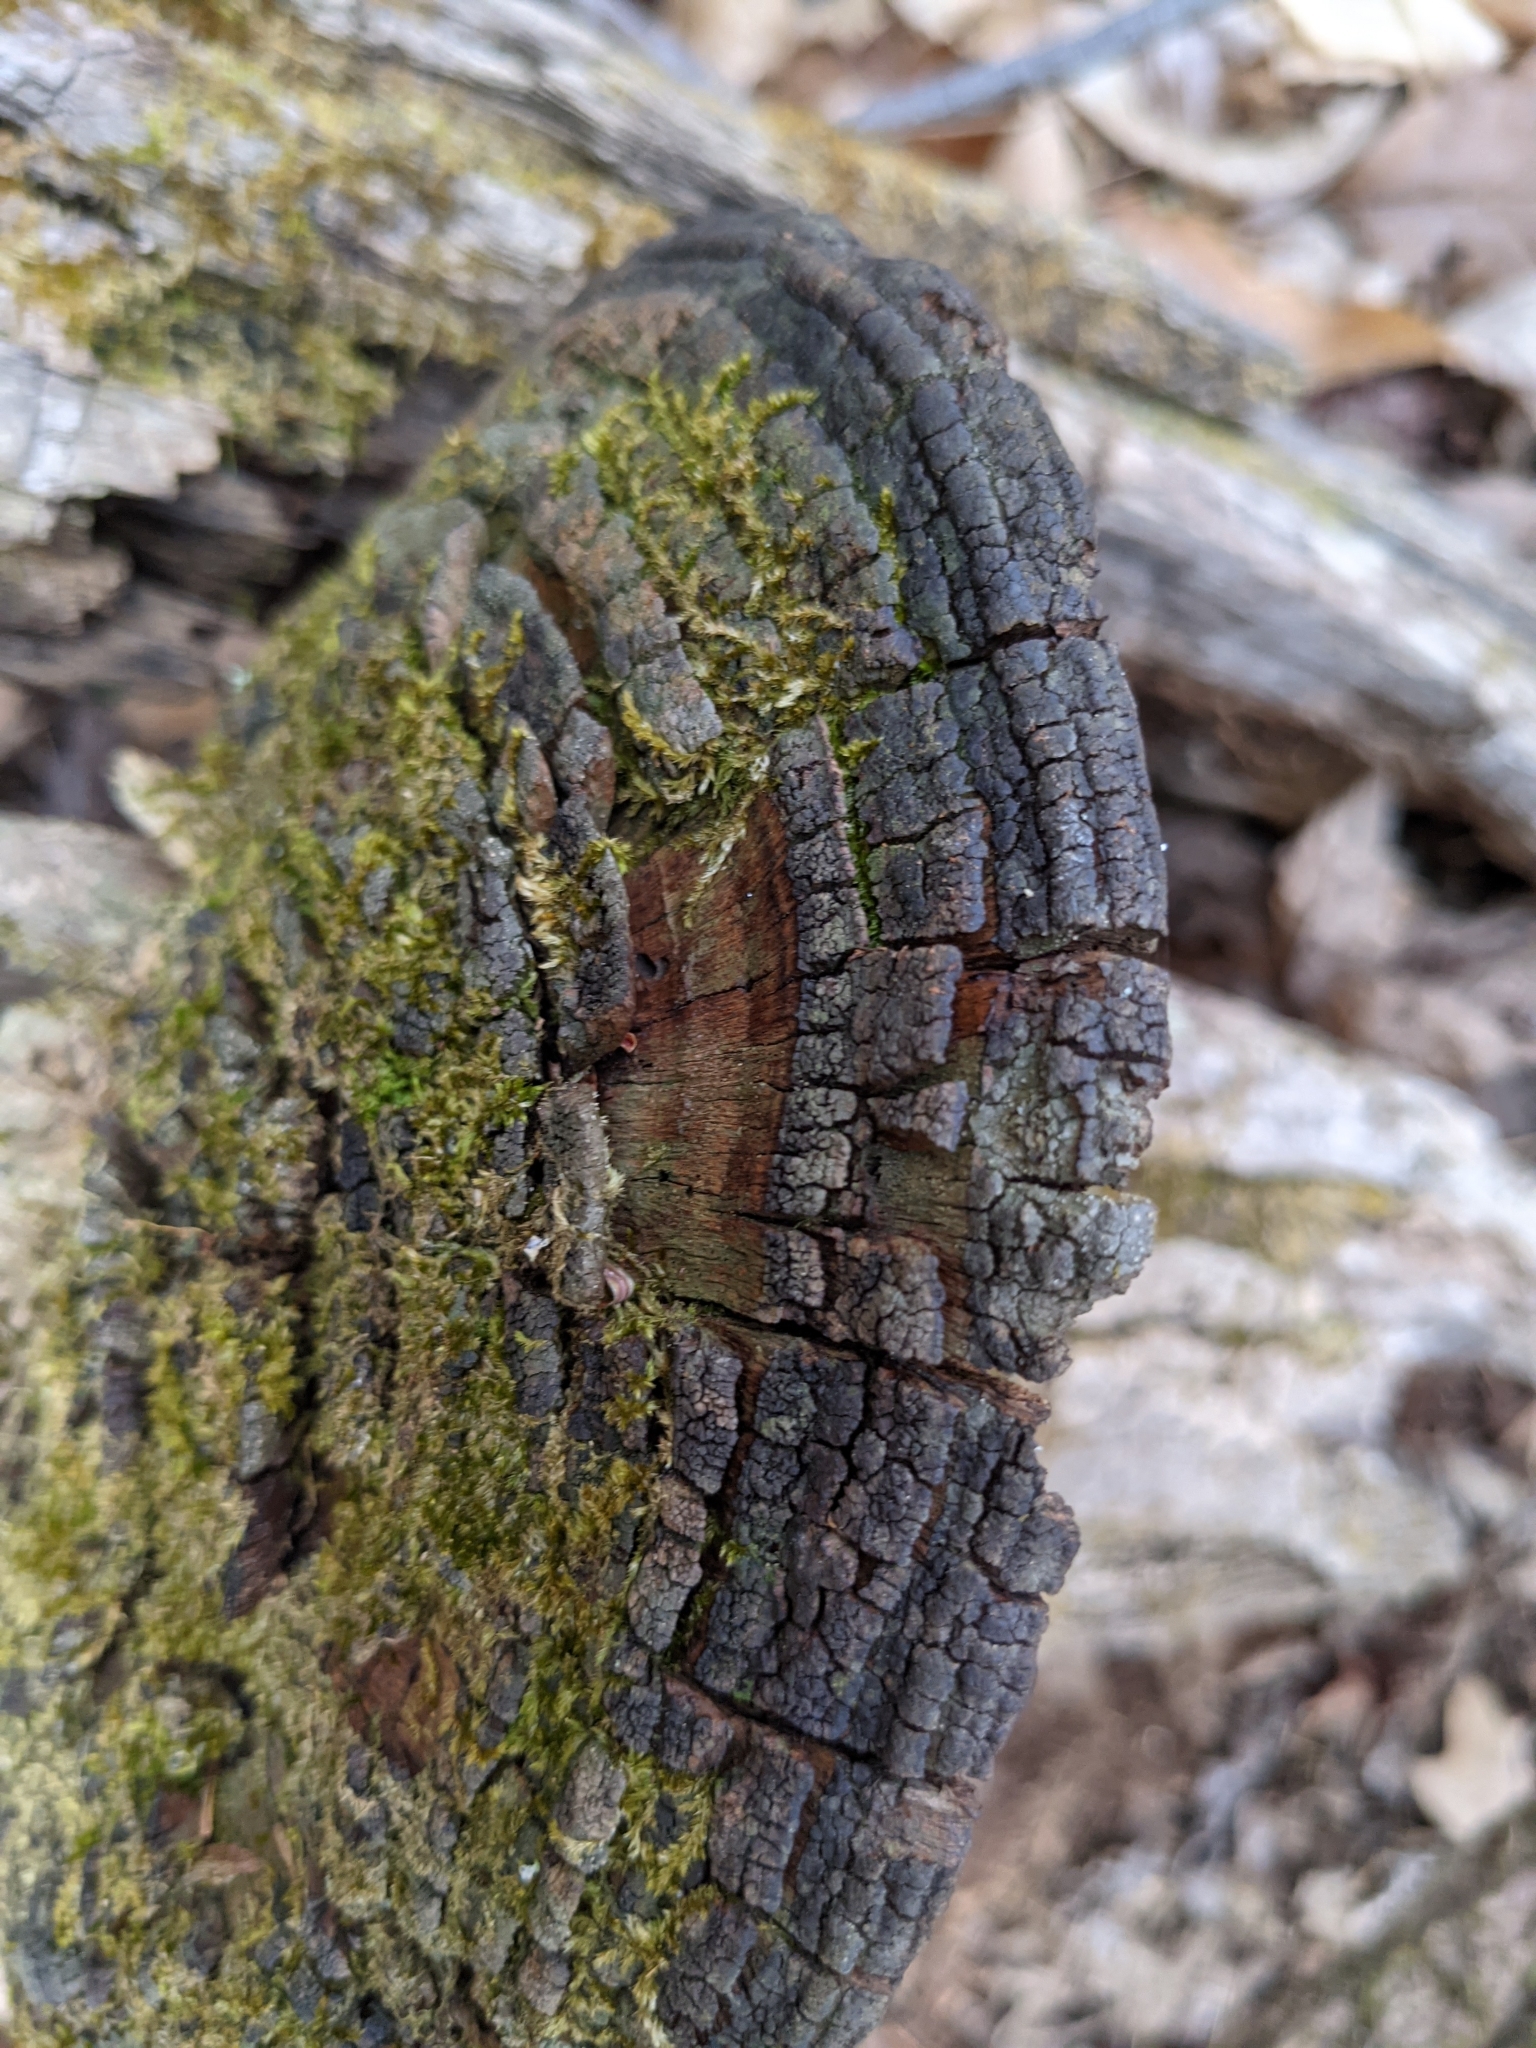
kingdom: Fungi
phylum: Basidiomycota
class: Agaricomycetes
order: Hymenochaetales
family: Hymenochaetaceae
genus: Phellinus
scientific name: Phellinus robiniae
